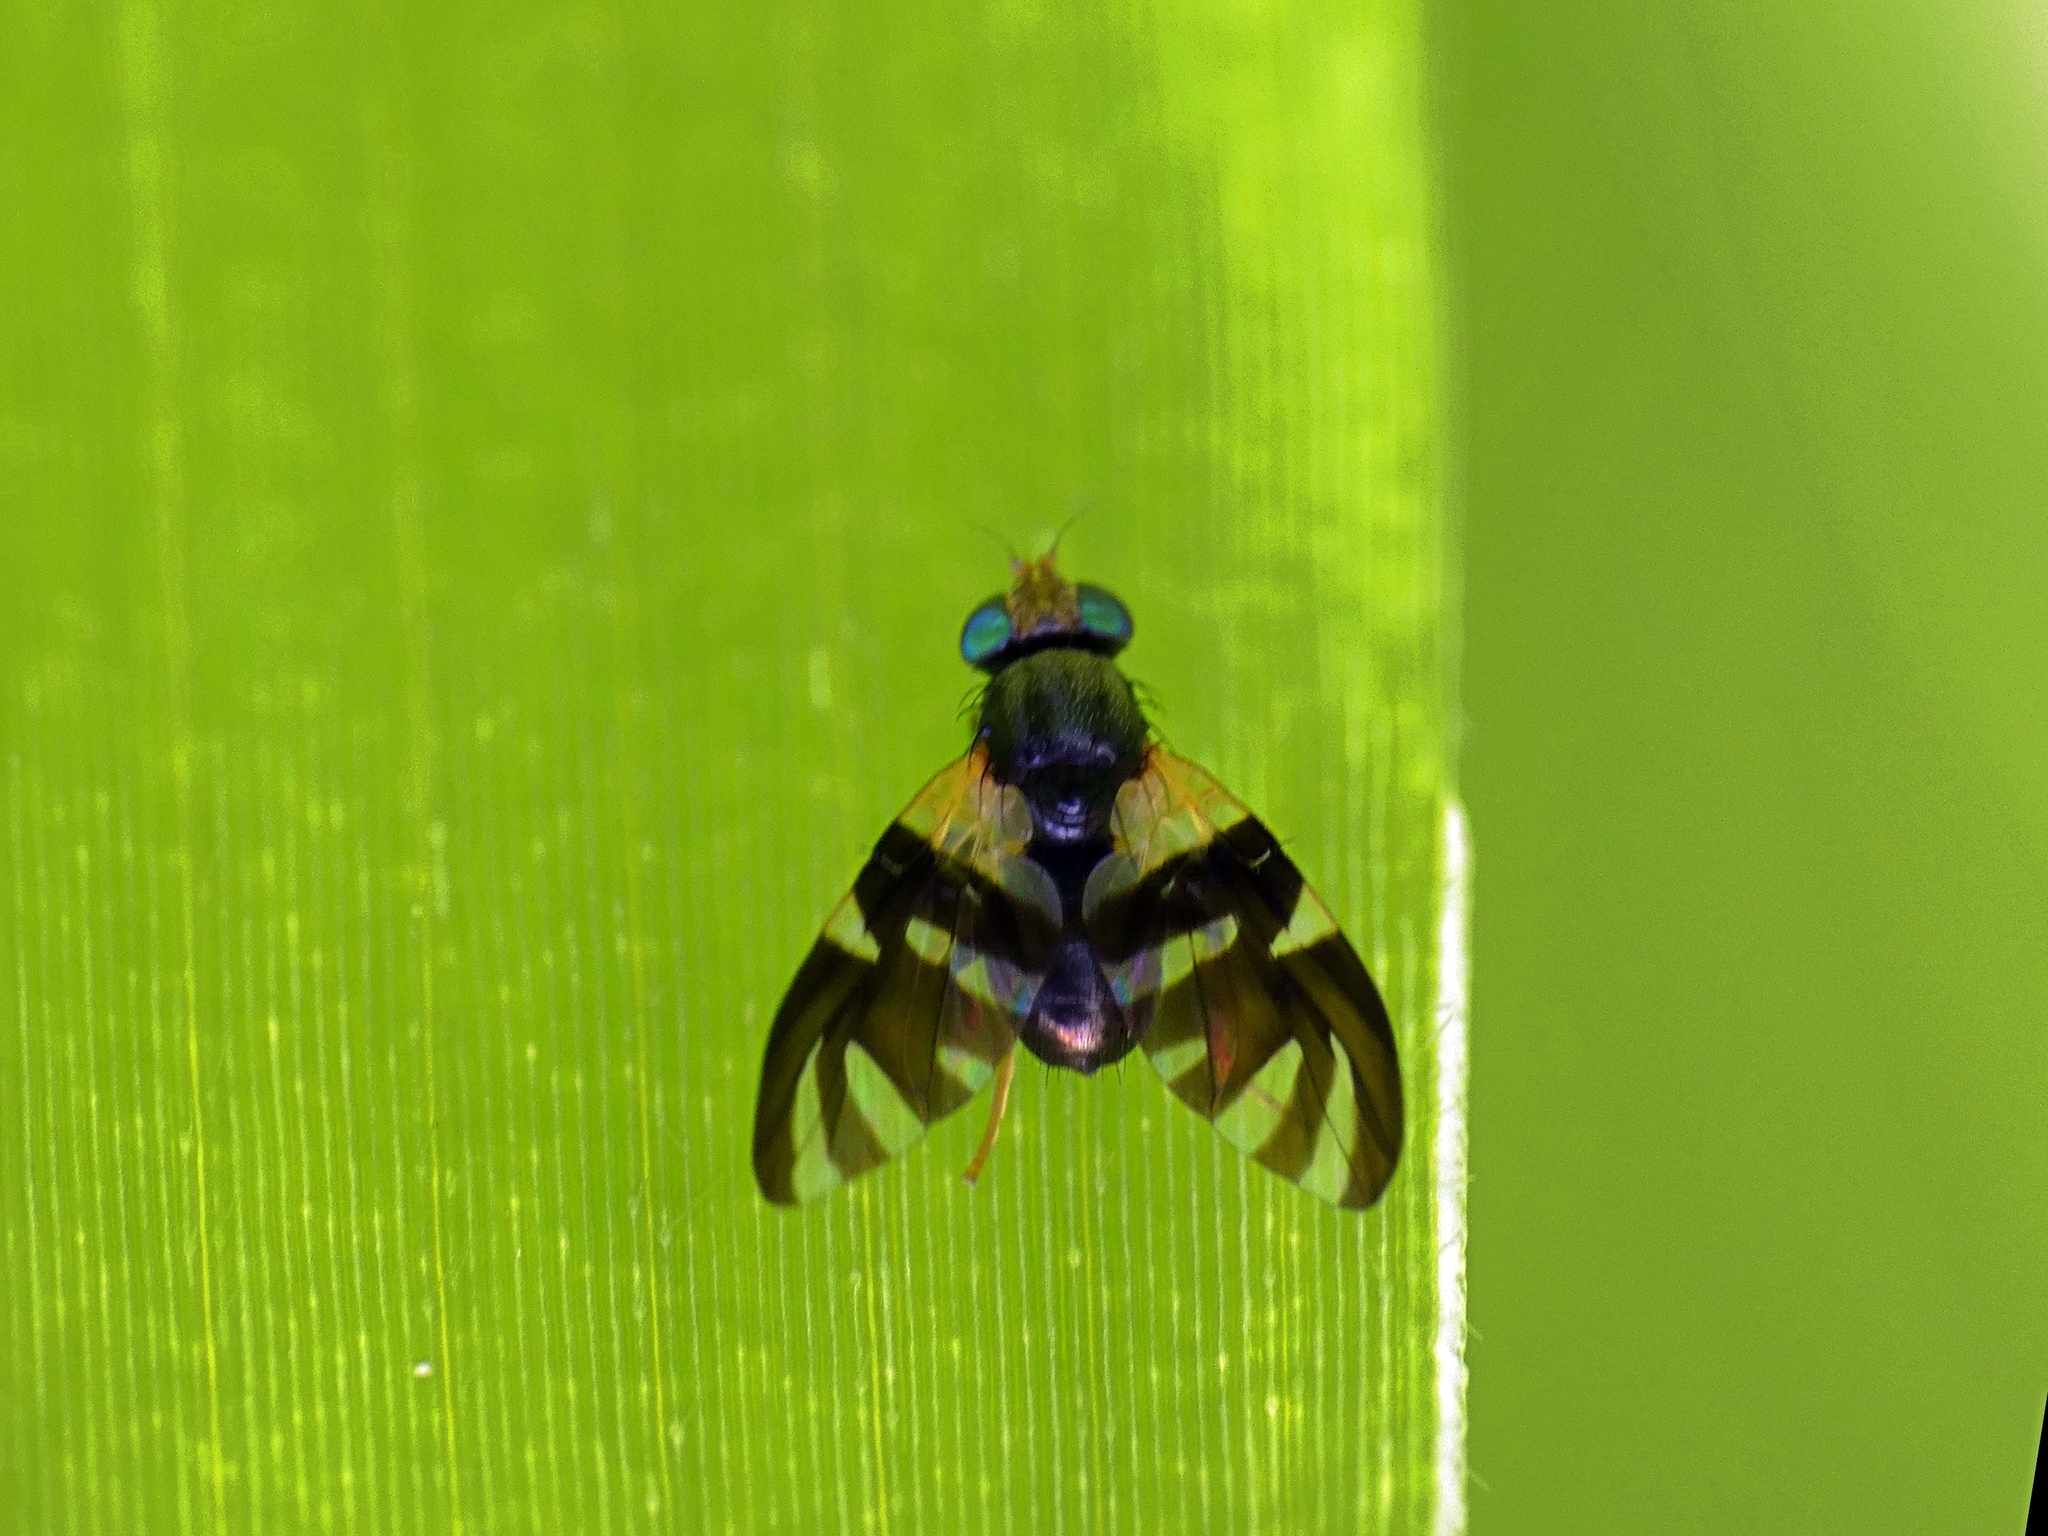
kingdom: Animalia
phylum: Arthropoda
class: Insecta
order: Diptera
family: Tephritidae
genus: Sphaeniscus
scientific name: Sphaeniscus atilius
